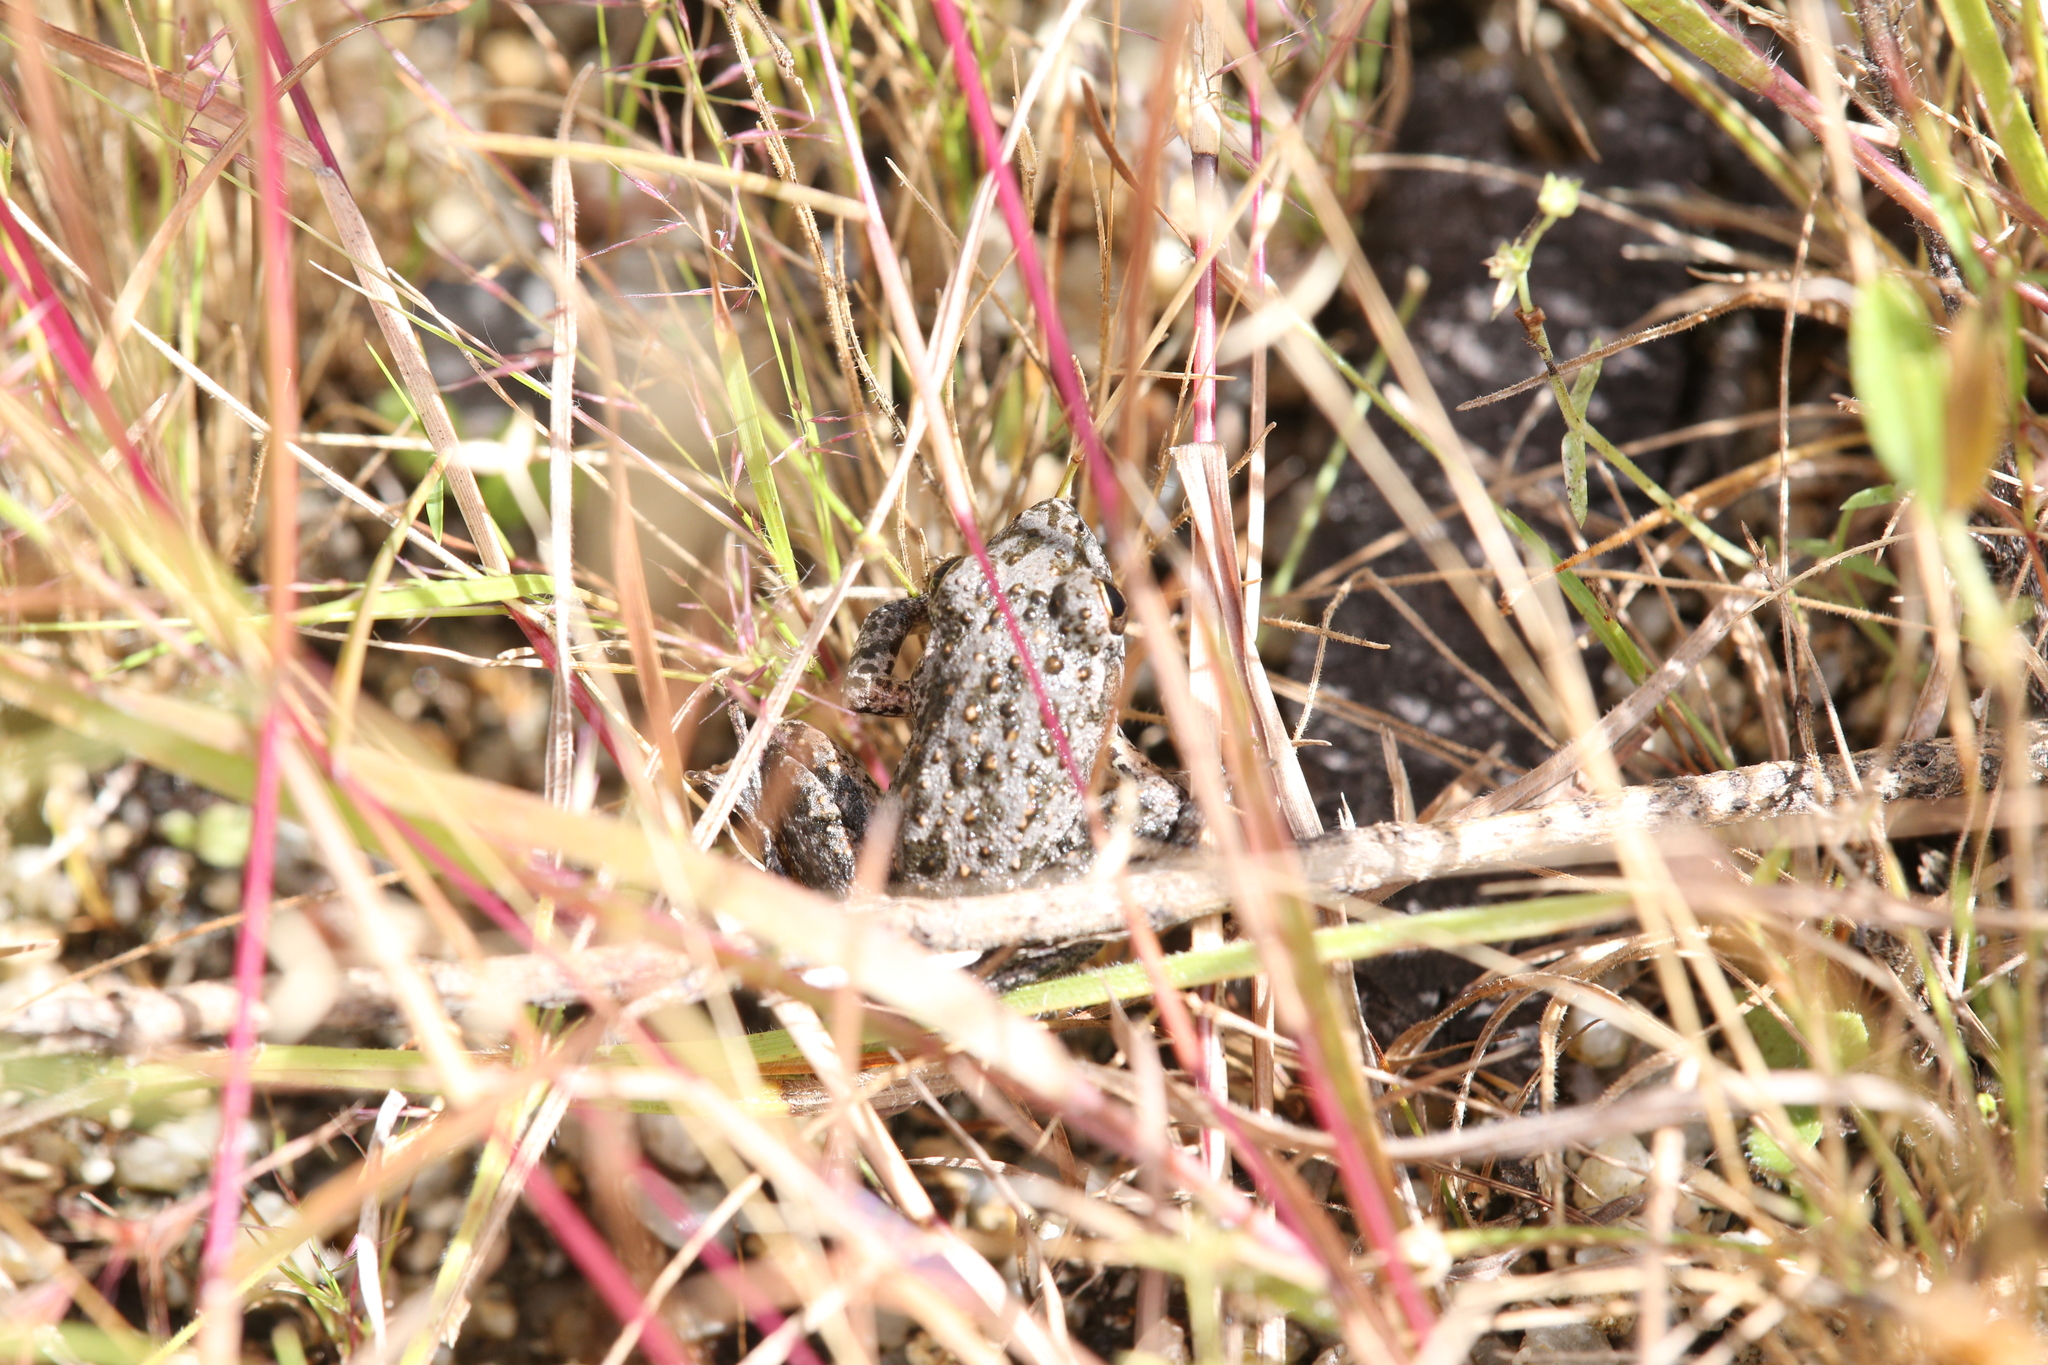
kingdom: Animalia
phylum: Chordata
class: Amphibia
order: Anura
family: Pelodryadidae
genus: Litoria
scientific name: Litoria inermis
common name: Bumpy rocket frog
